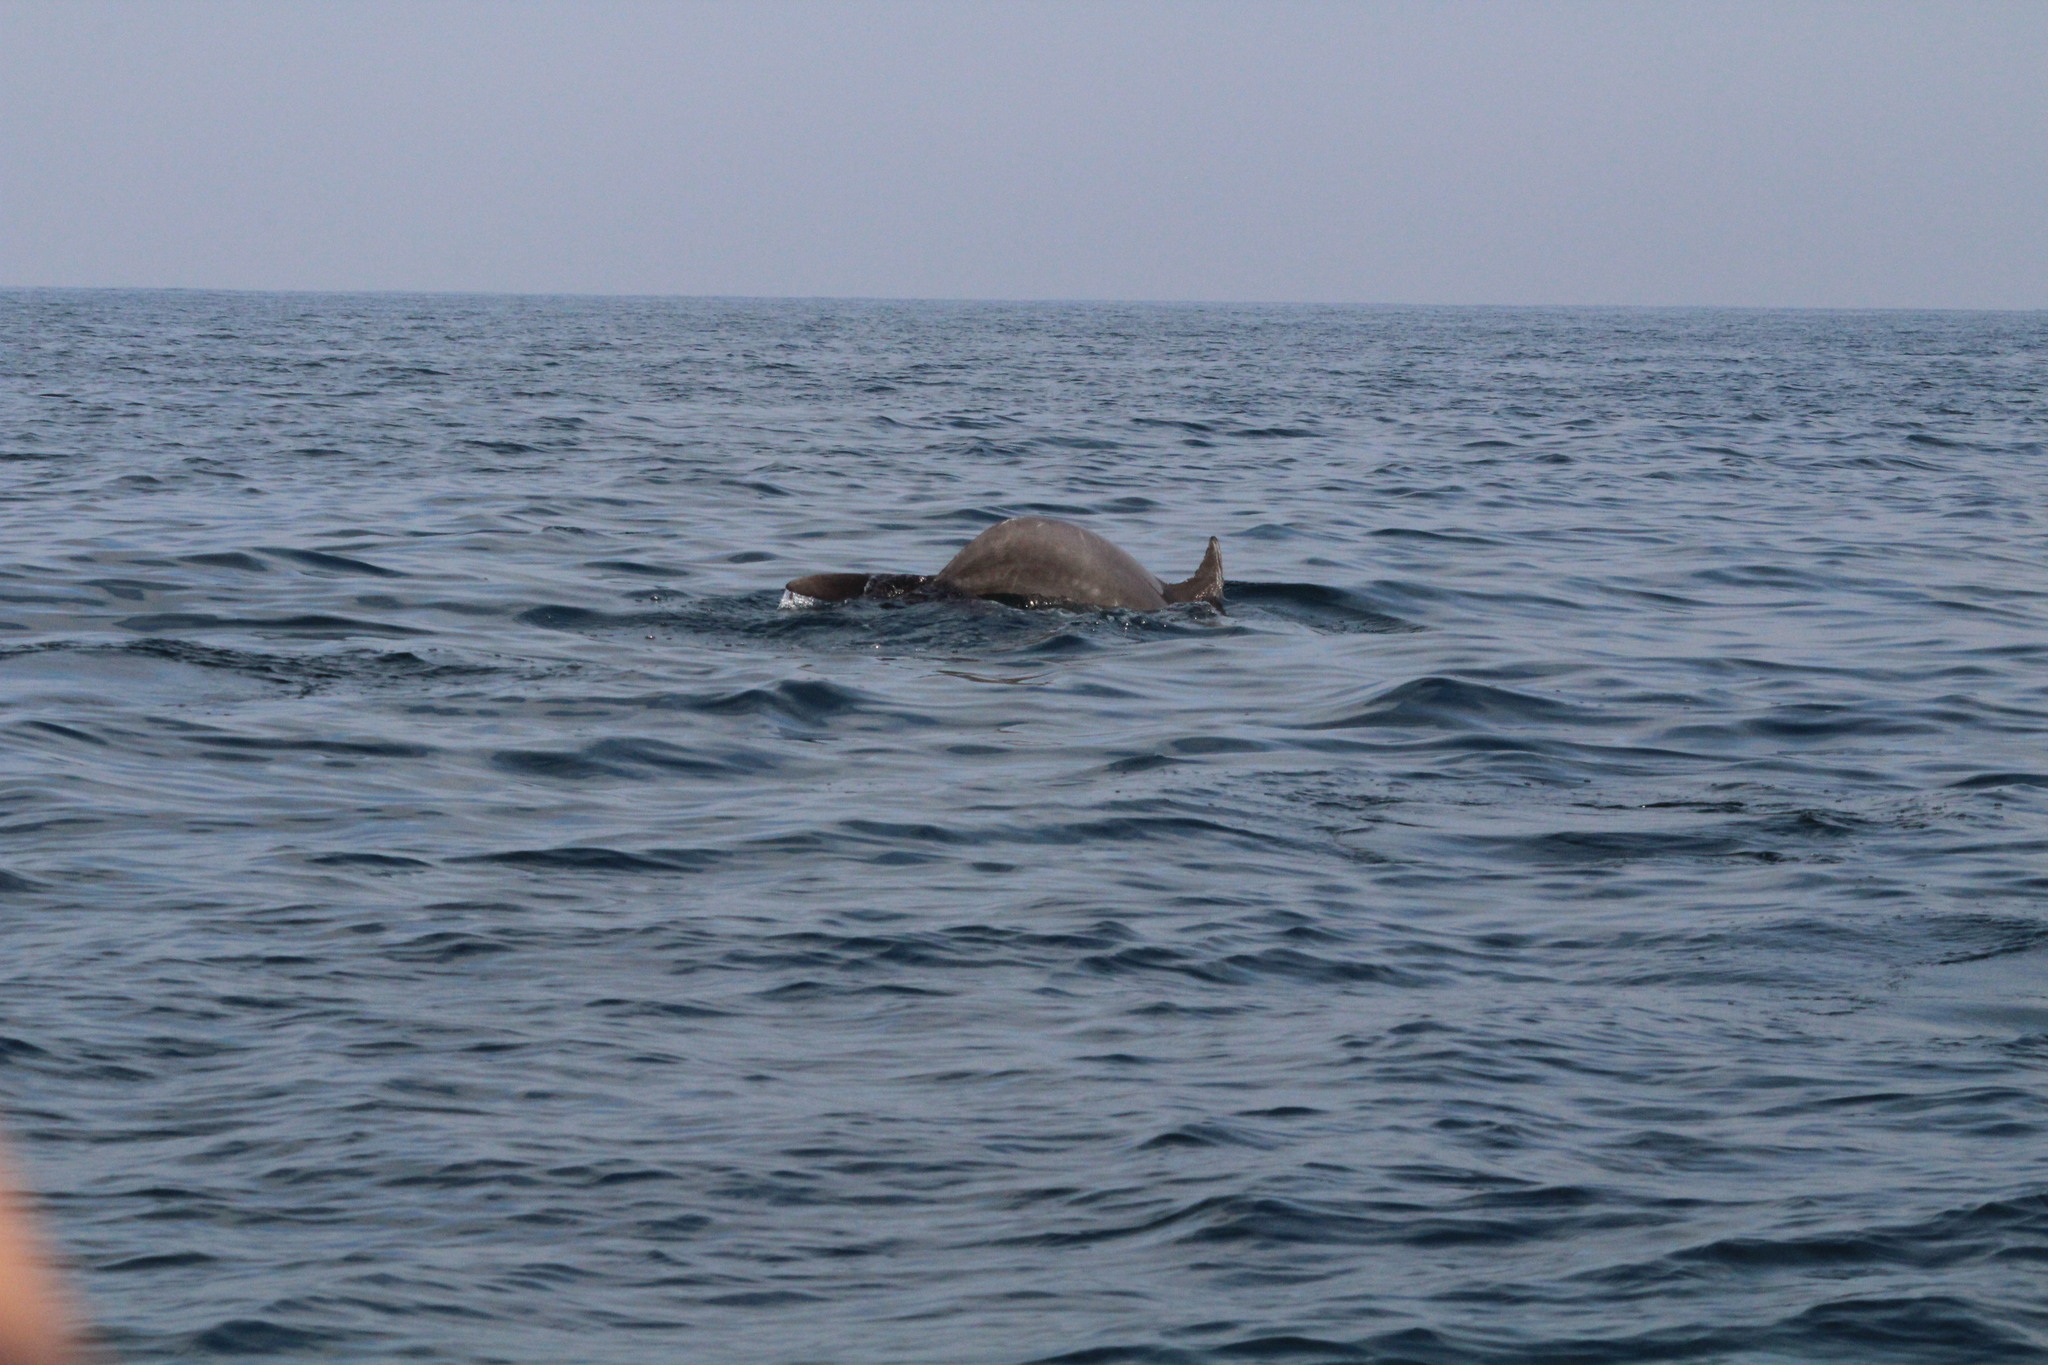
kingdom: Animalia
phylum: Chordata
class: Mammalia
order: Cetacea
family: Delphinidae
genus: Tursiops
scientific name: Tursiops truncatus
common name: Bottlenose dolphin
